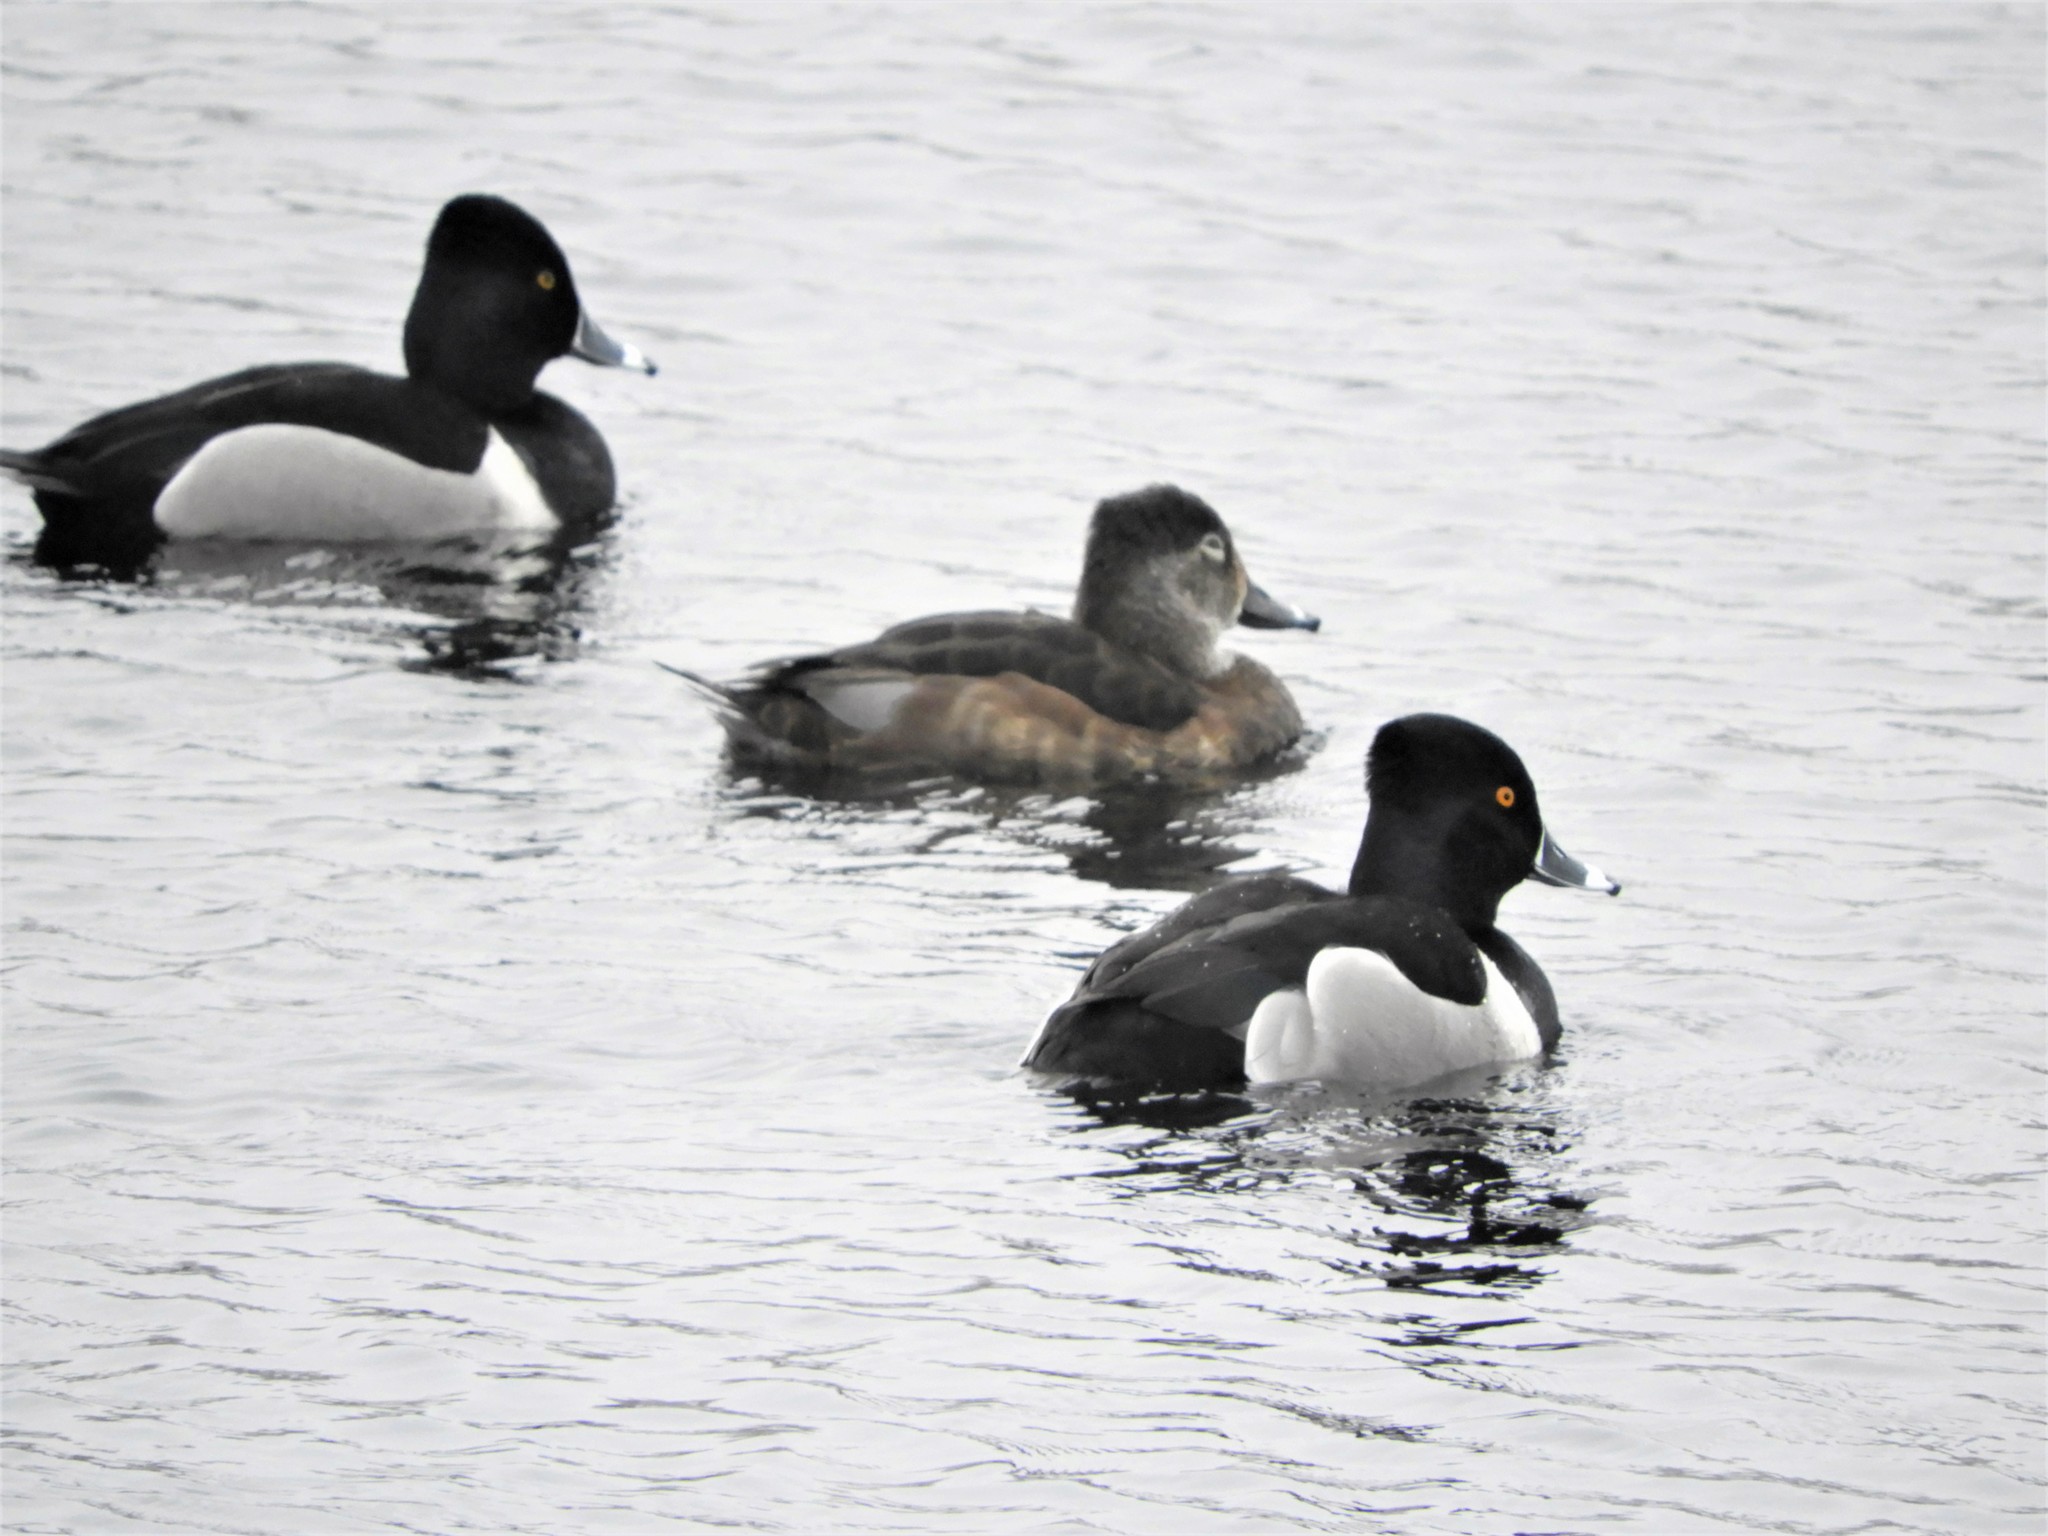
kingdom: Animalia
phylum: Chordata
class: Aves
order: Anseriformes
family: Anatidae
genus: Aythya
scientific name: Aythya collaris
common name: Ring-necked duck
